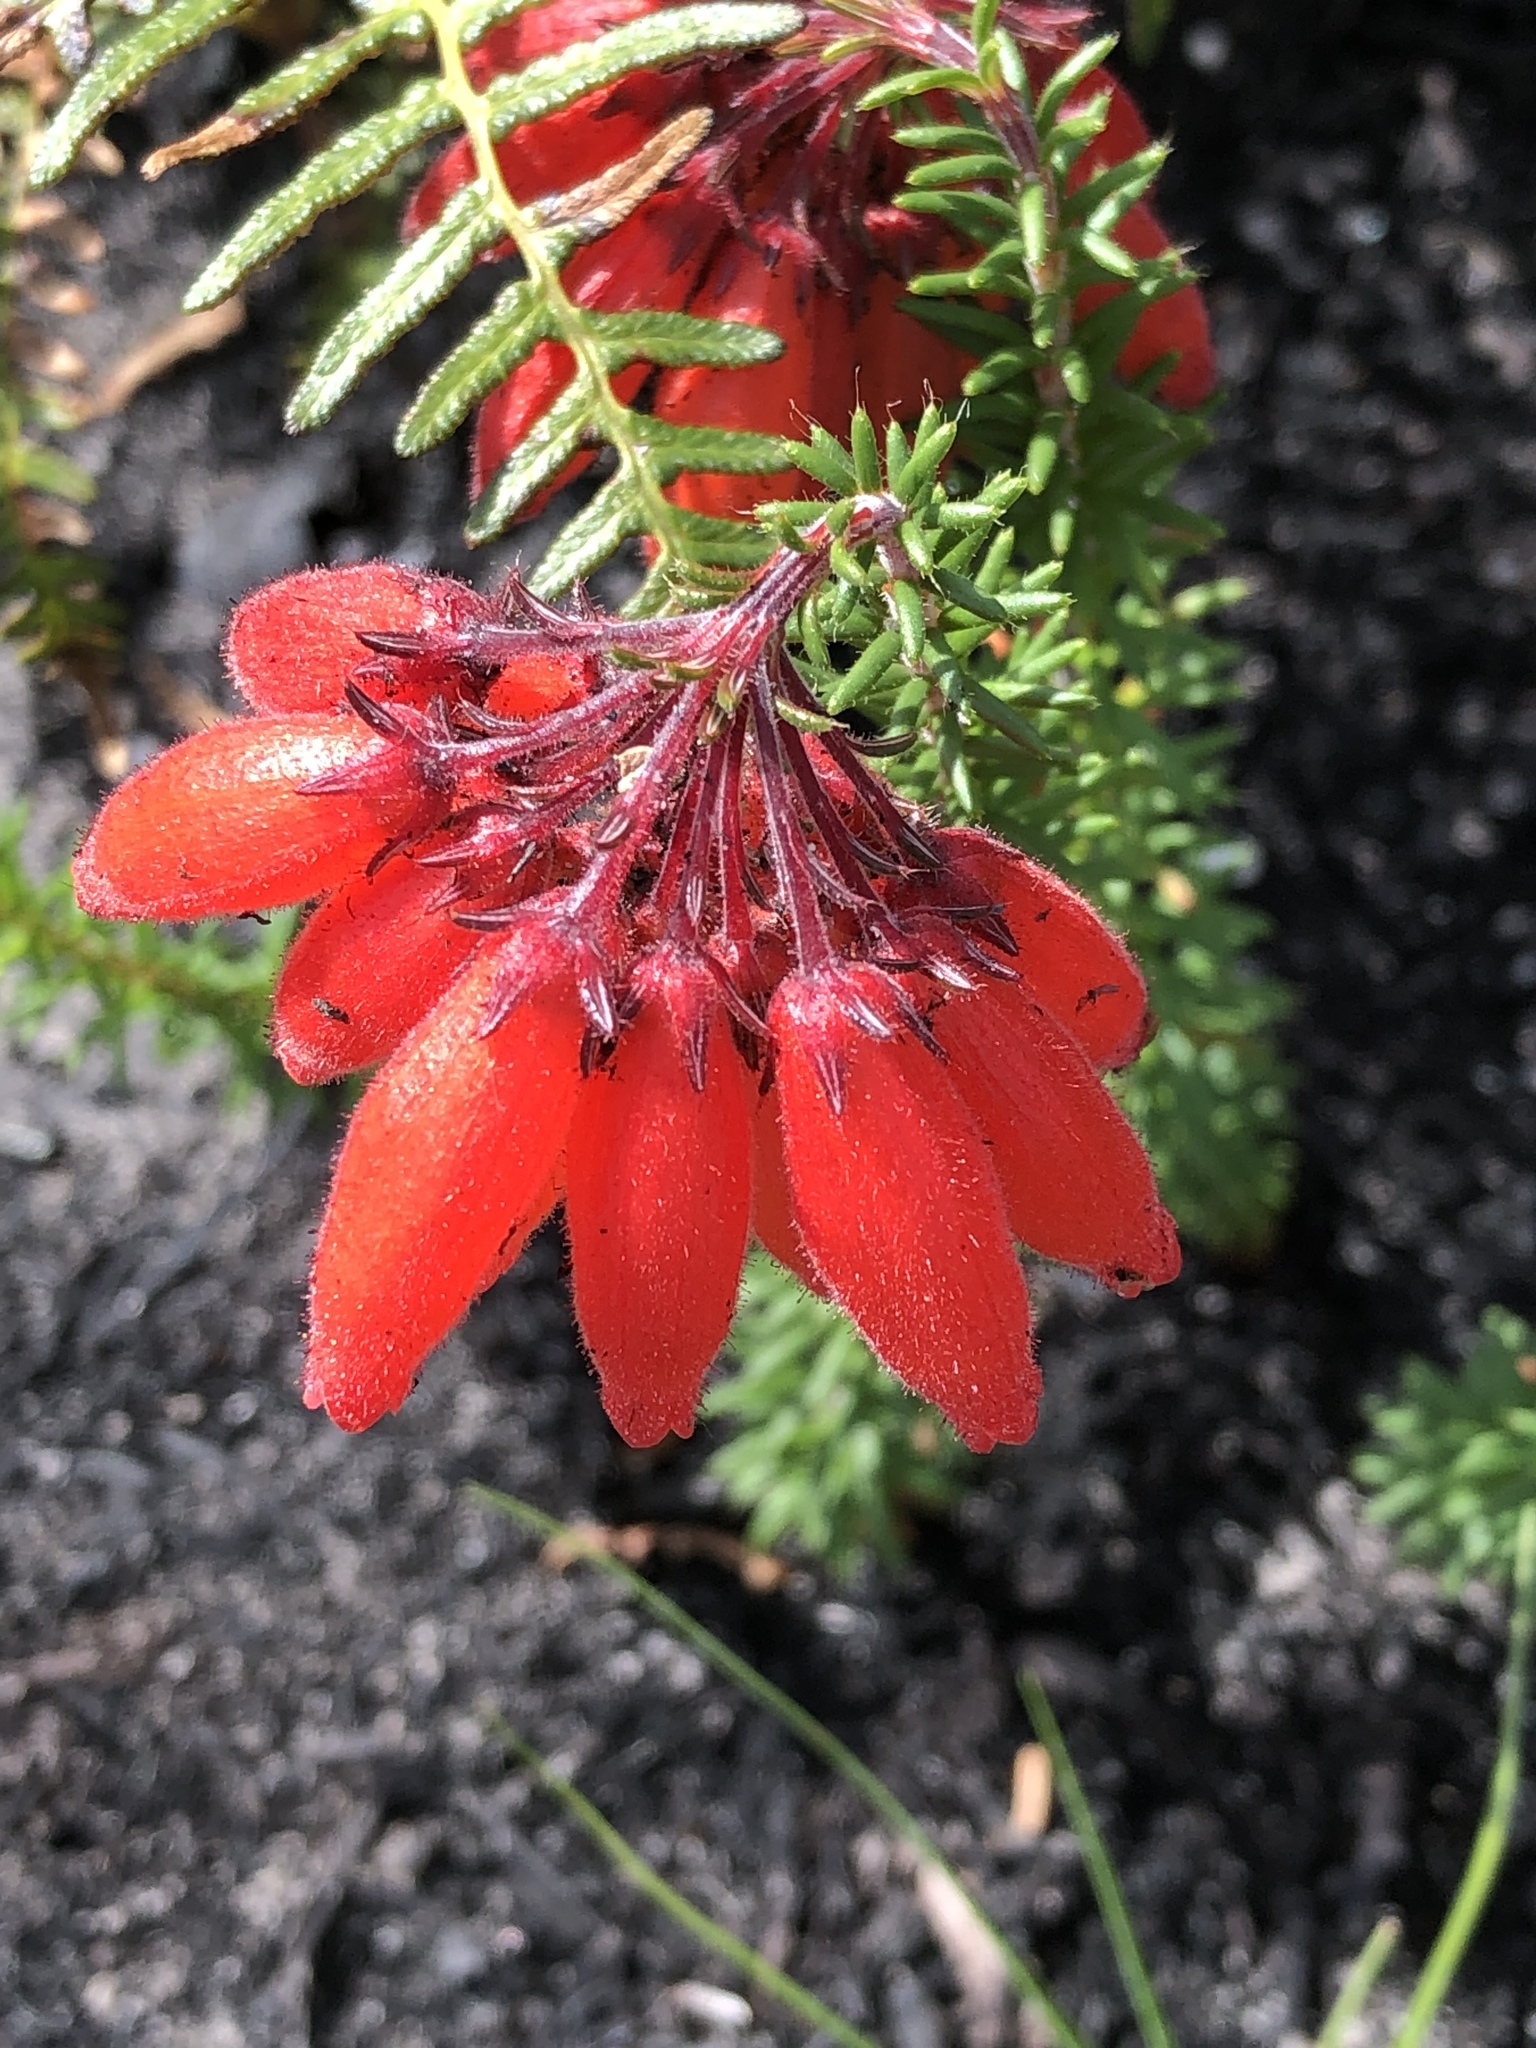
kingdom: Plantae
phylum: Tracheophyta
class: Magnoliopsida
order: Ericales
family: Ericaceae
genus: Erica
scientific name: Erica cerinthoides
